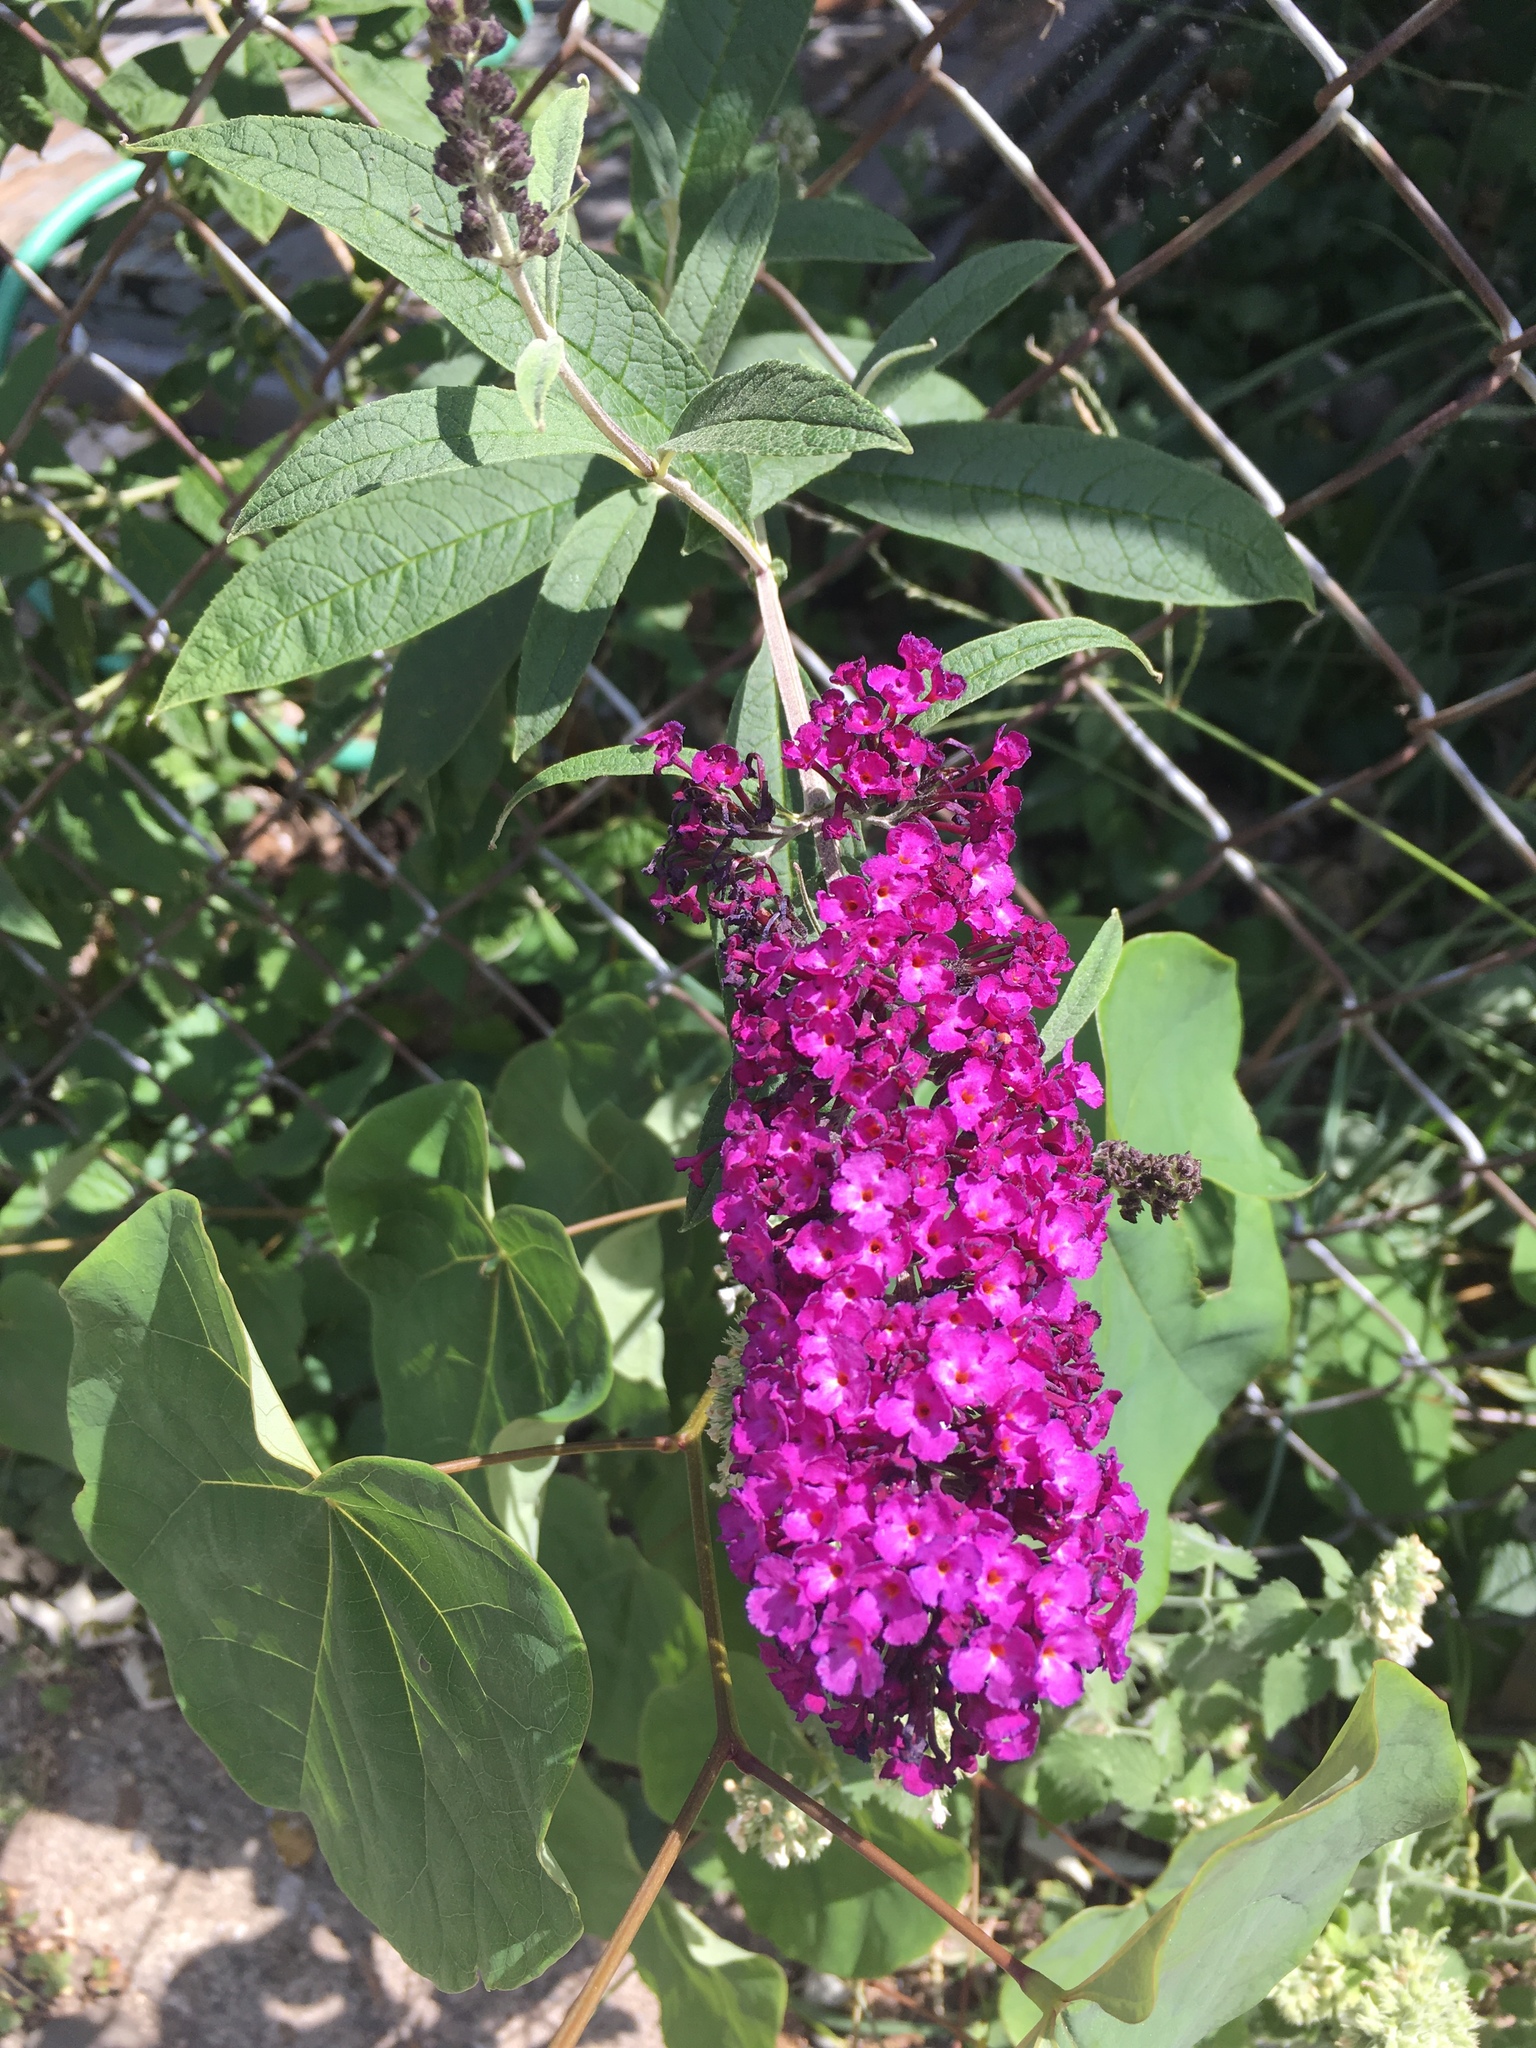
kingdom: Plantae
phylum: Tracheophyta
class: Magnoliopsida
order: Lamiales
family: Scrophulariaceae
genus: Buddleja
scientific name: Buddleja davidii
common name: Butterfly-bush
